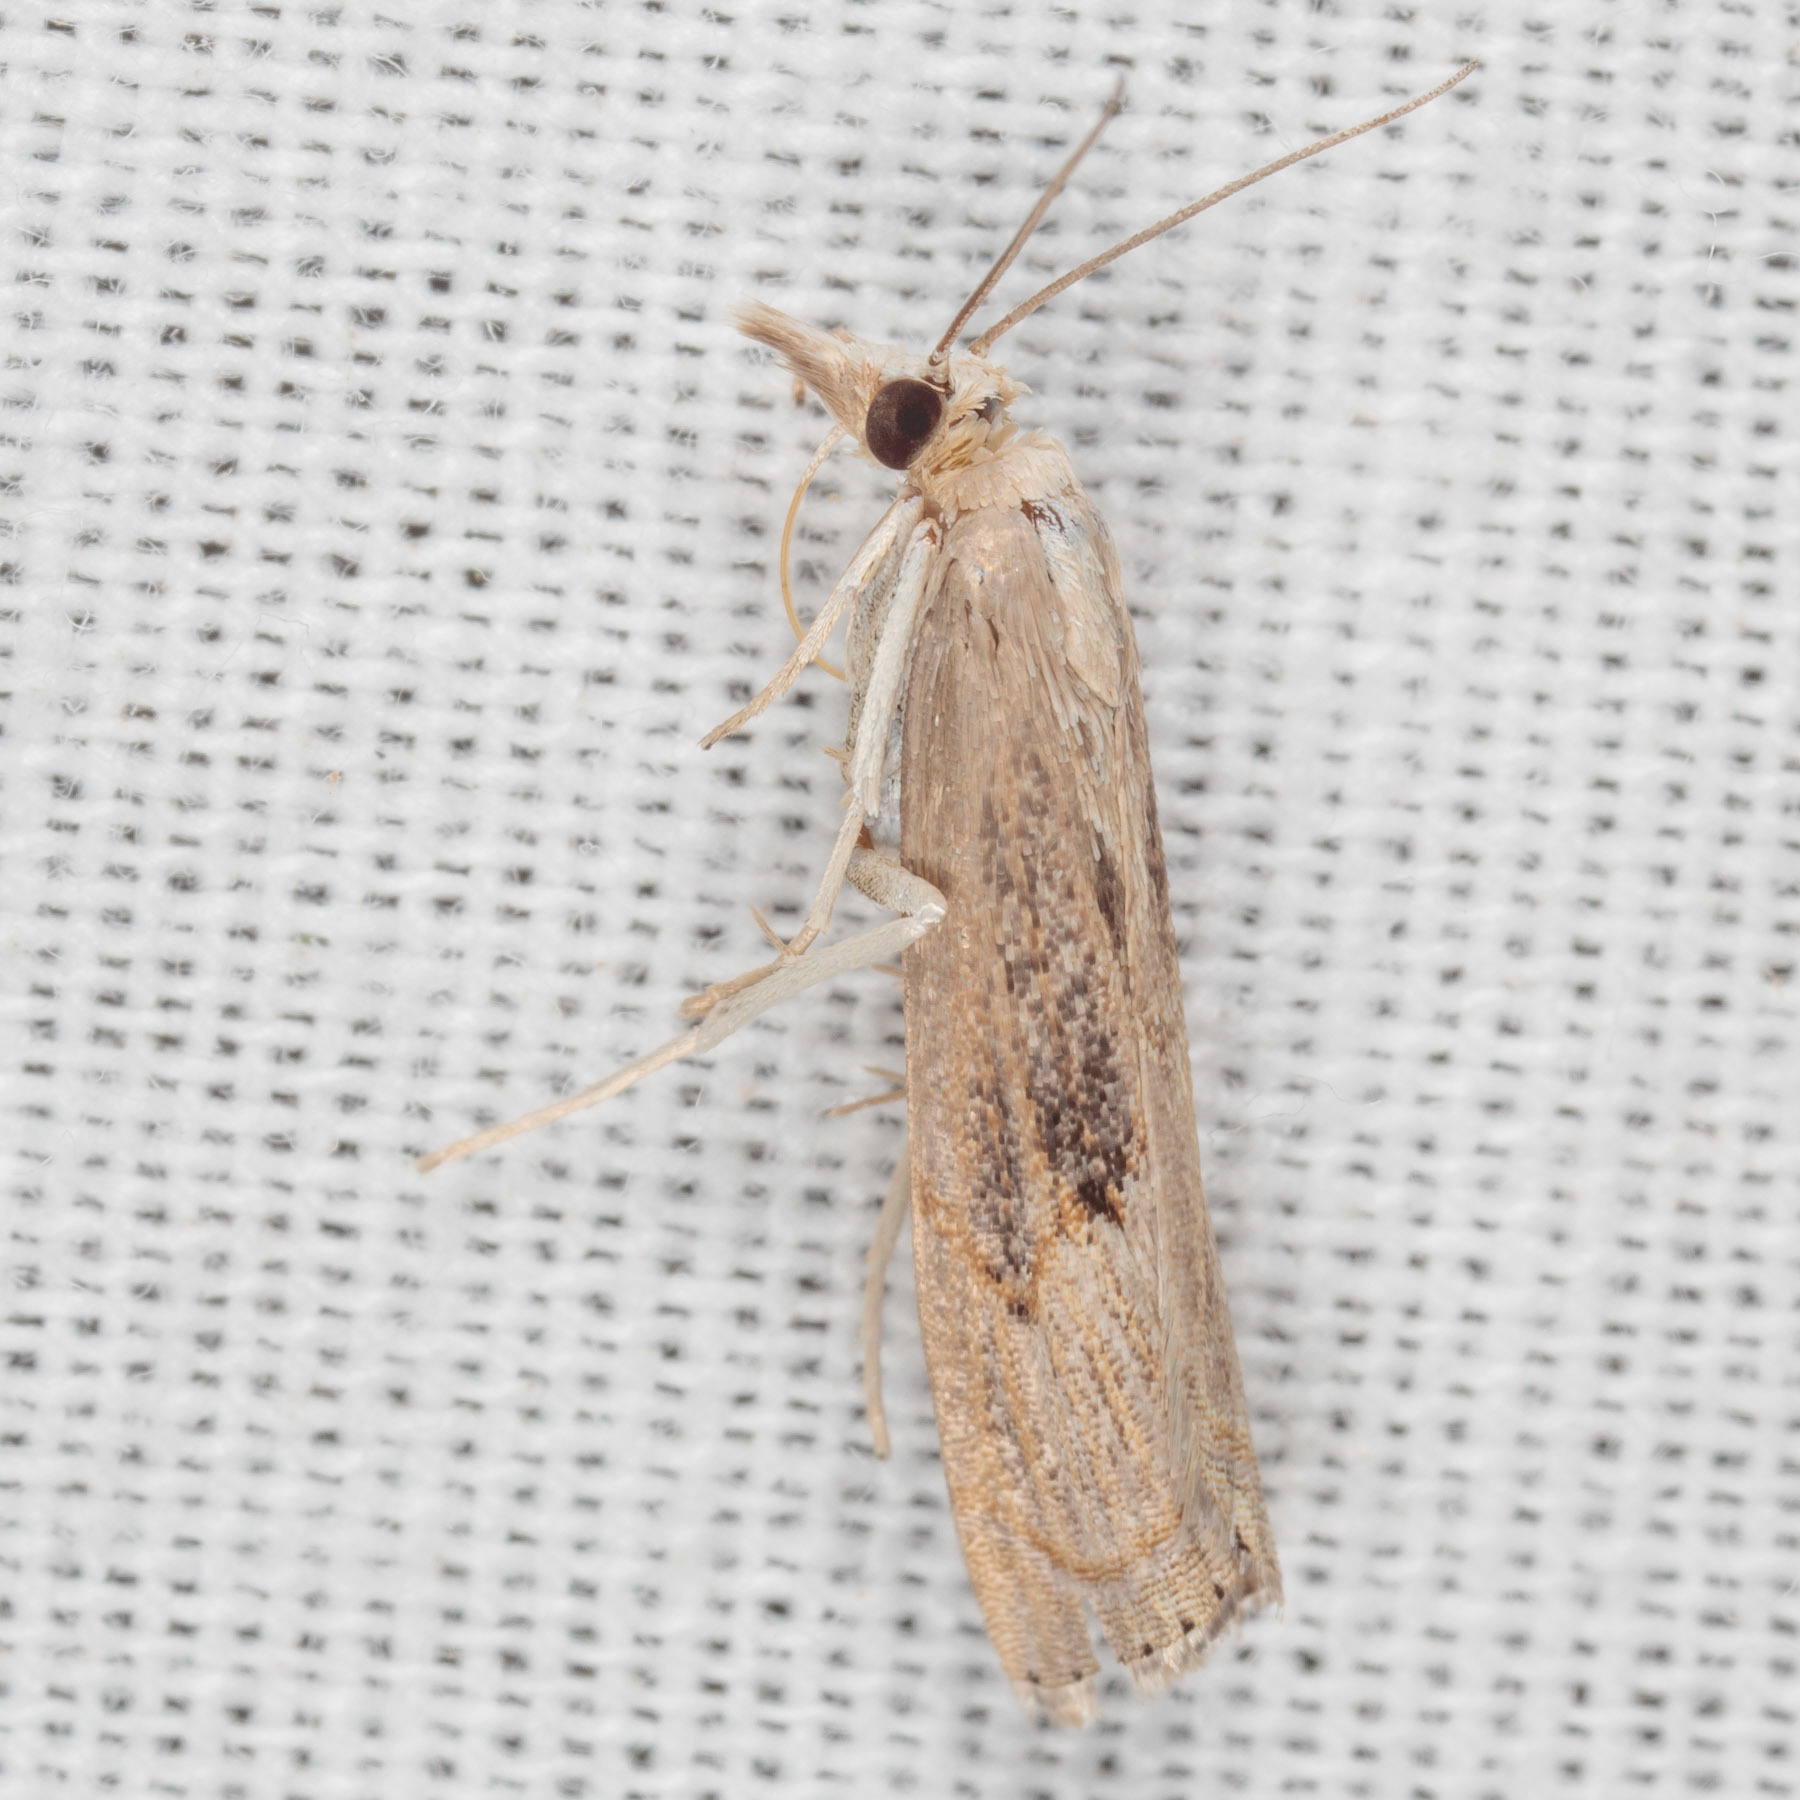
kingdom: Animalia
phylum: Arthropoda
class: Insecta
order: Lepidoptera
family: Crambidae
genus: Parapediasia
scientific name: Parapediasia teterellus
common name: Bluegrass webworm moth
